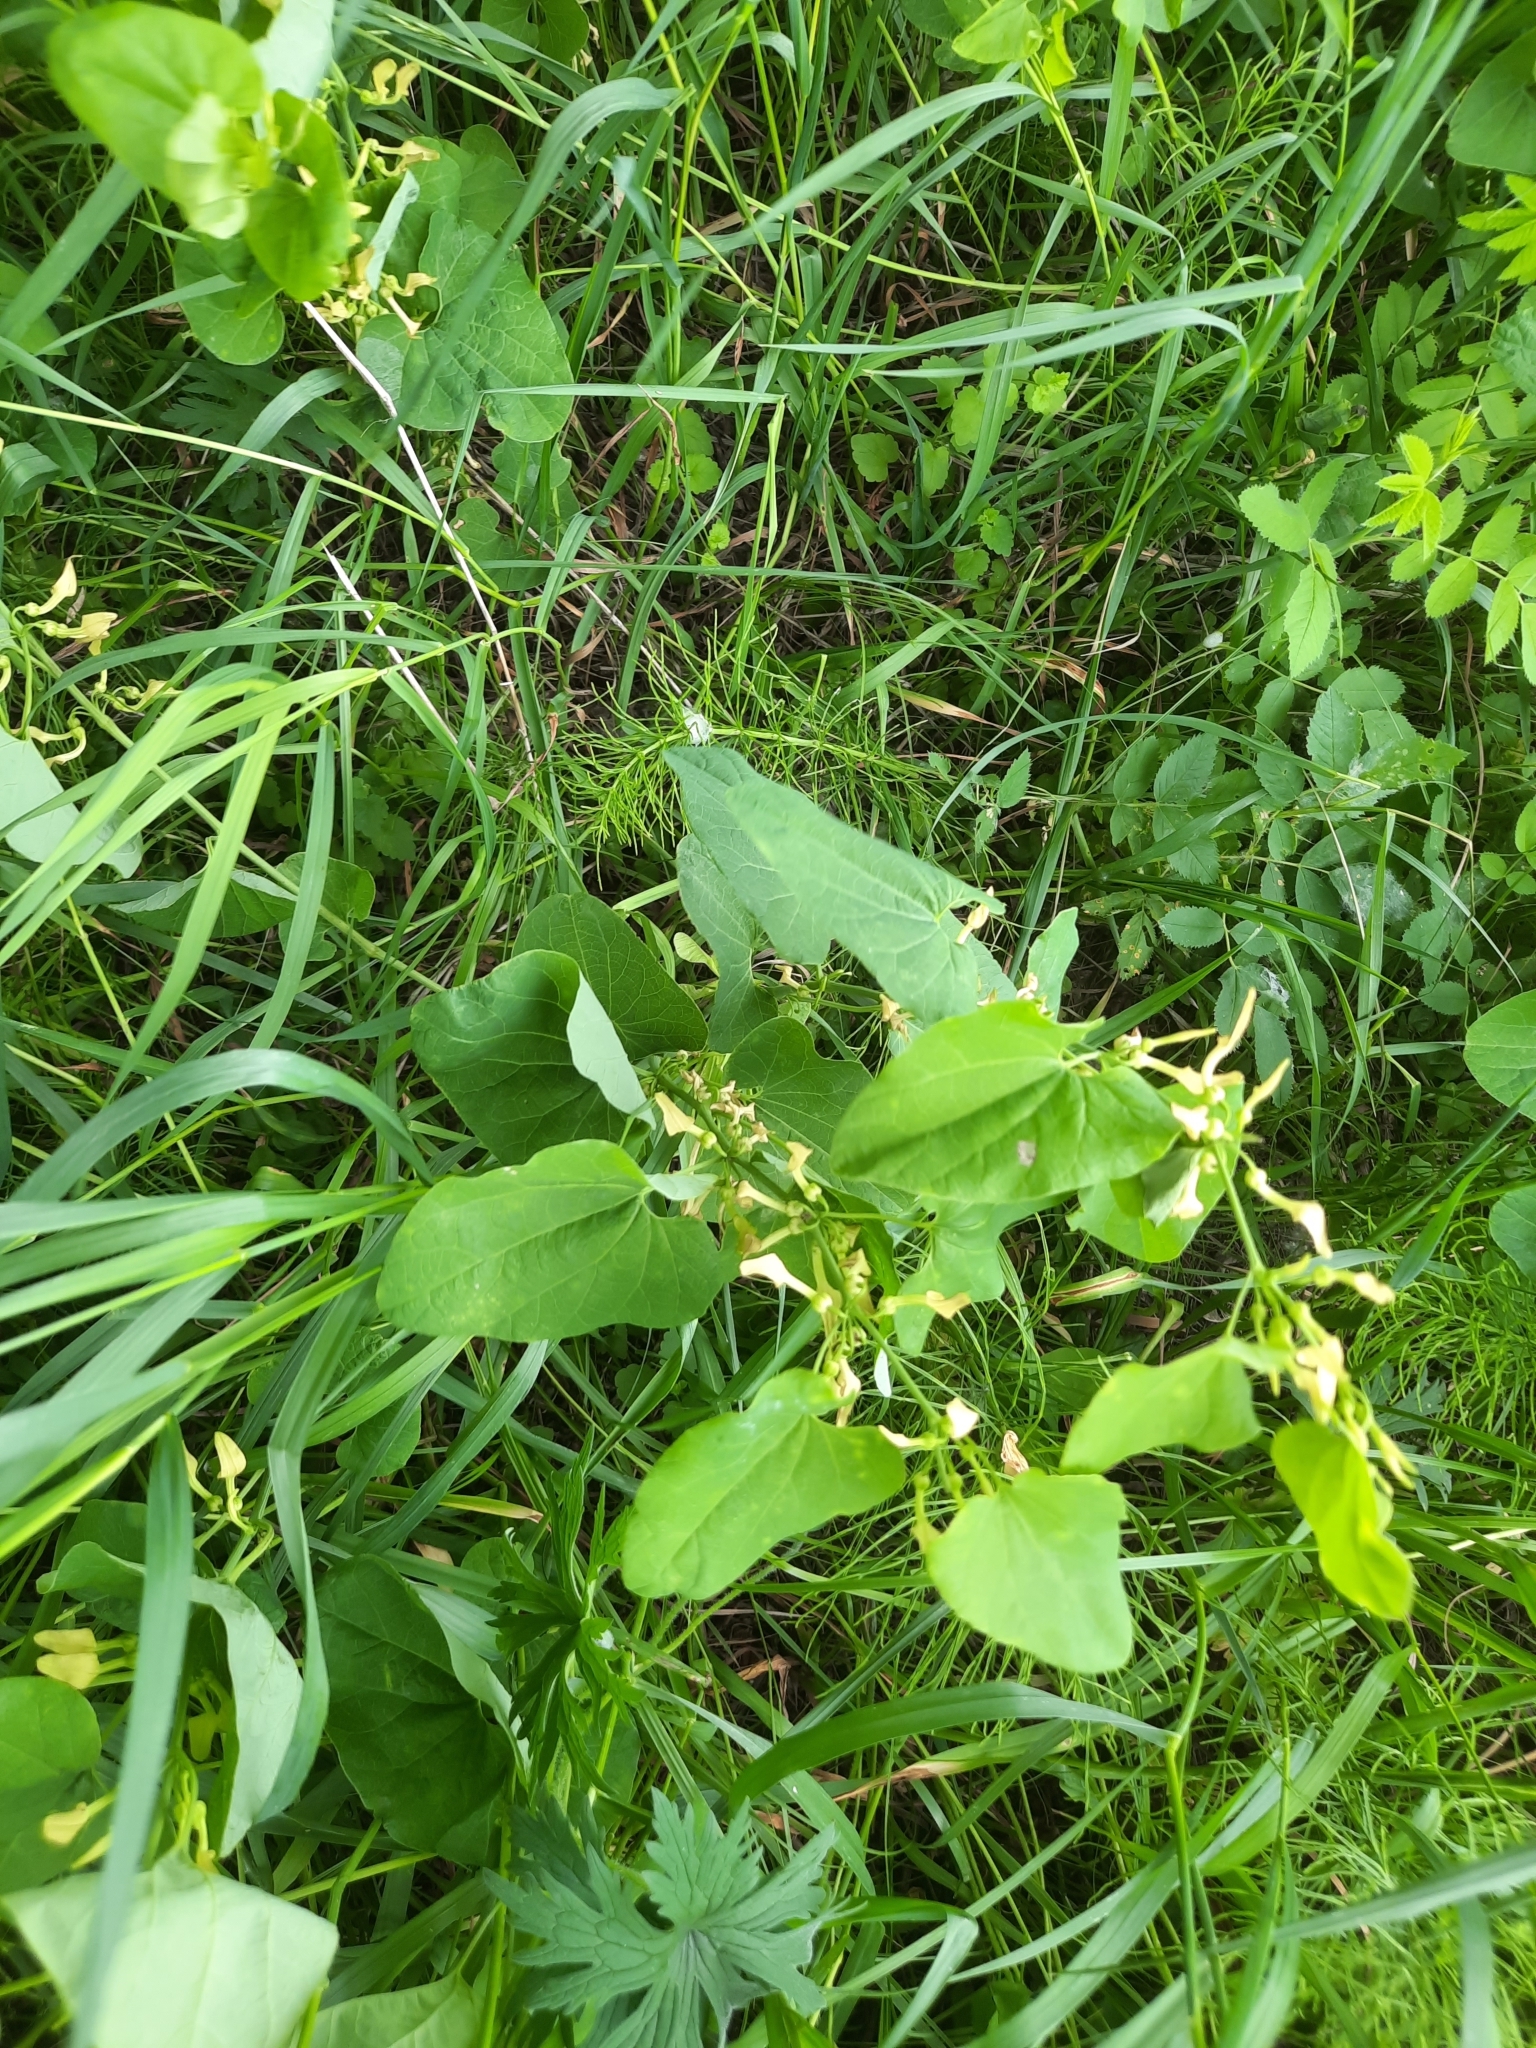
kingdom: Plantae
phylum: Tracheophyta
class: Magnoliopsida
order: Piperales
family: Aristolochiaceae
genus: Aristolochia
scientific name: Aristolochia clematitis
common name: Birthwort
